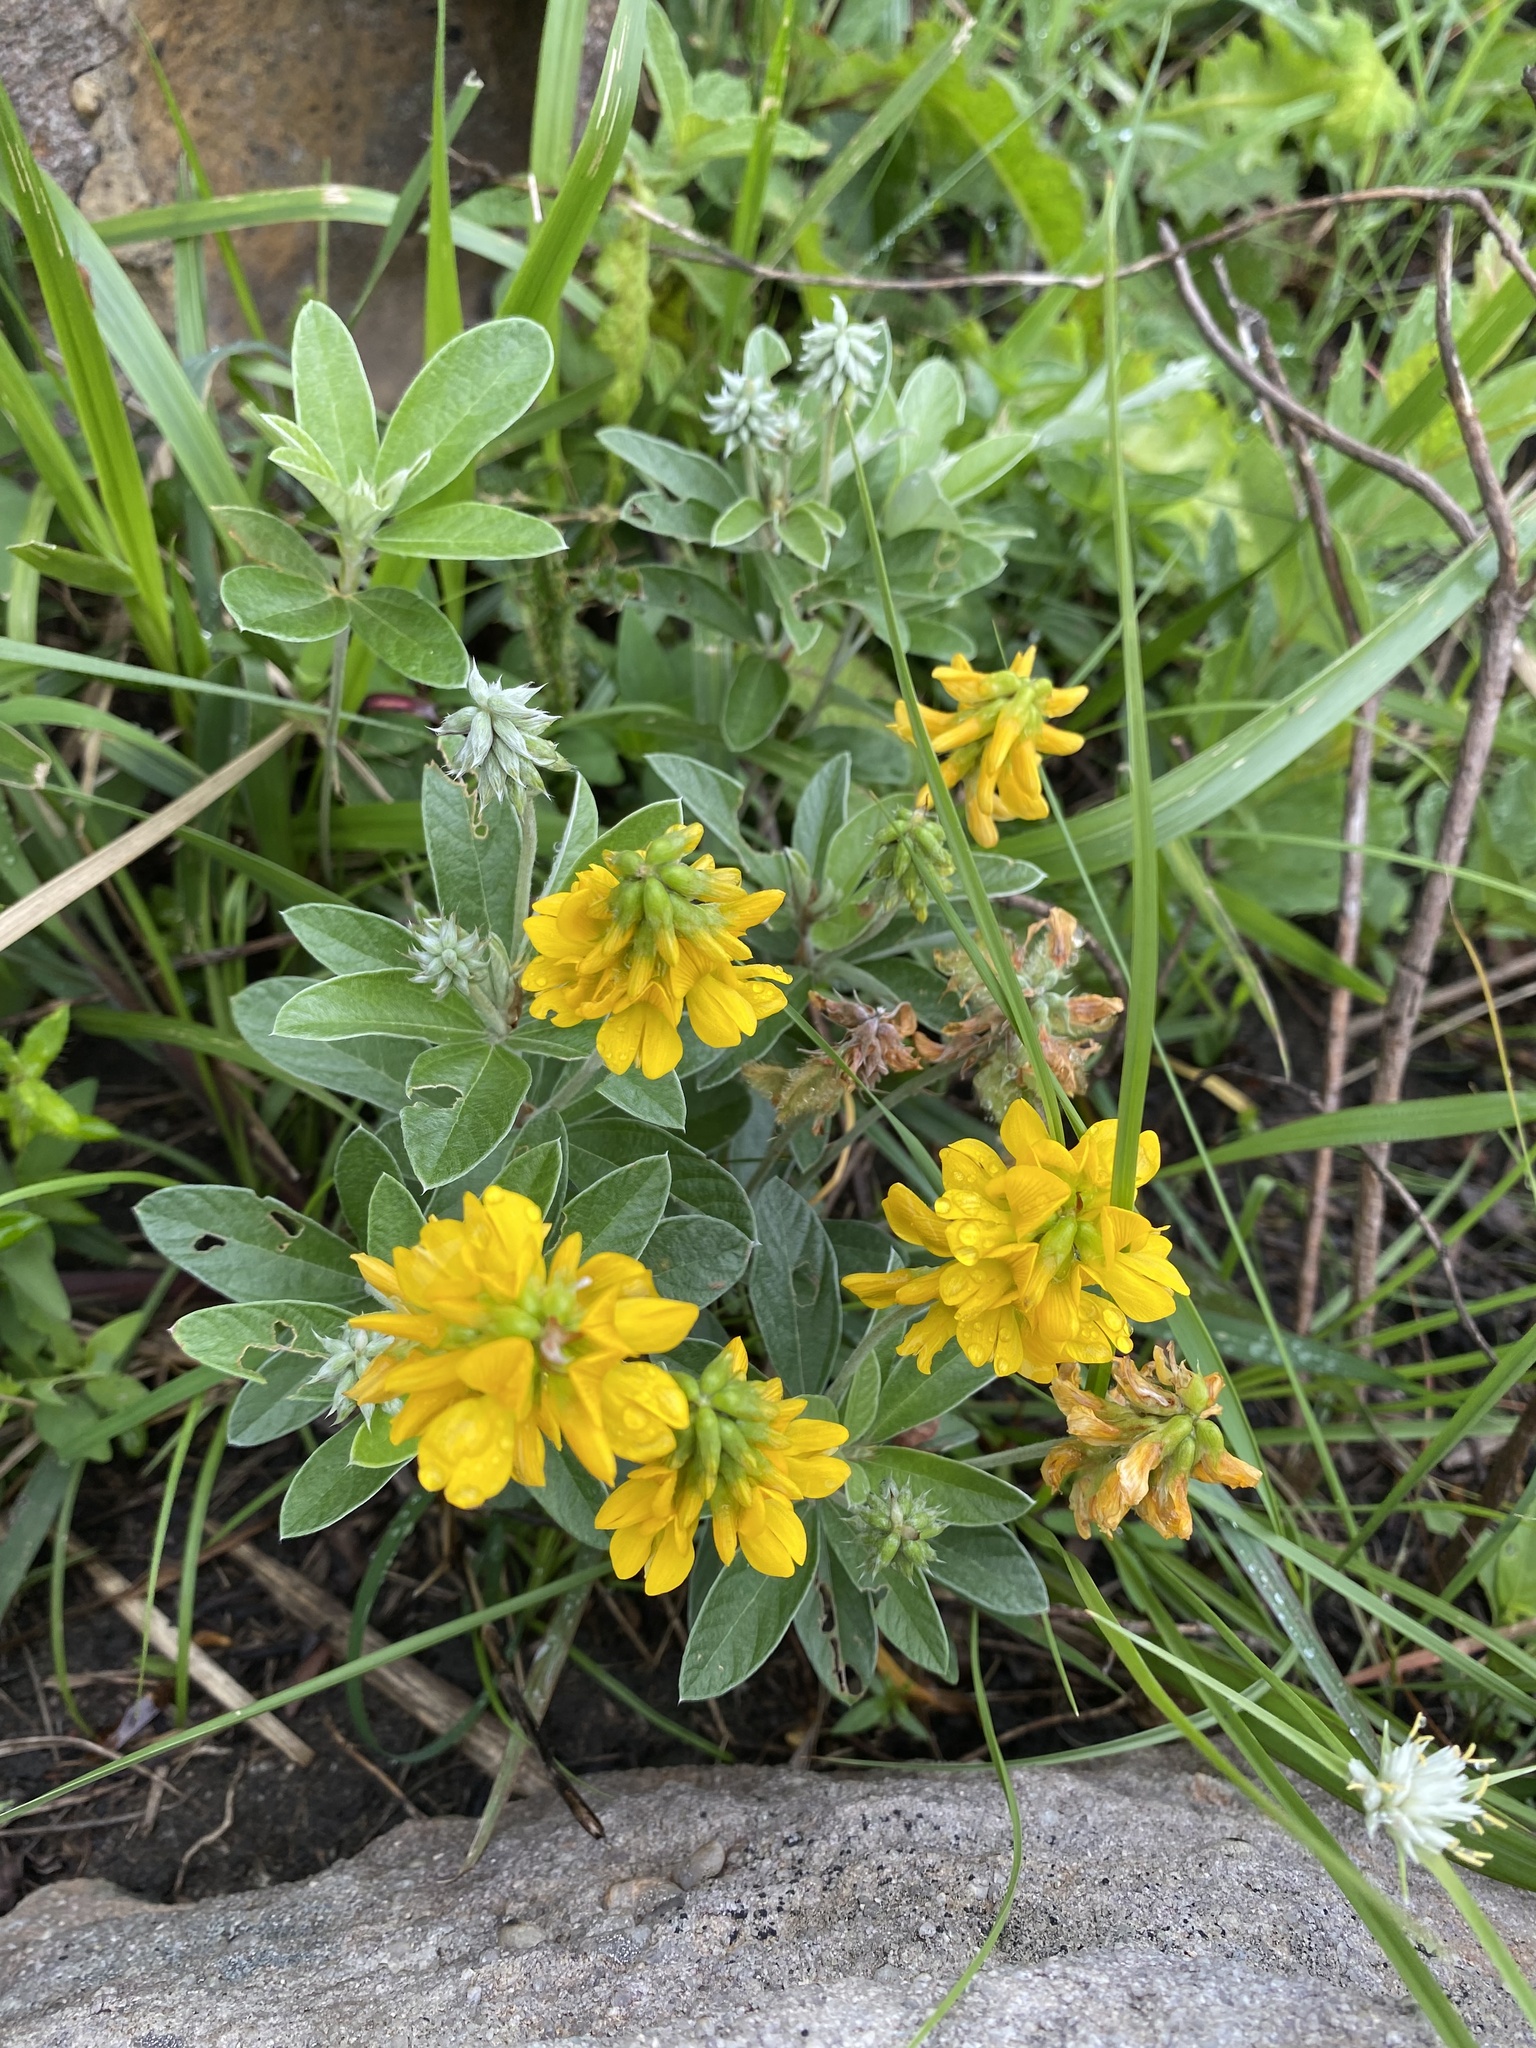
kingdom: Plantae
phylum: Tracheophyta
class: Magnoliopsida
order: Fabales
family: Fabaceae
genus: Eriosema
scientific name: Eriosema dregei
